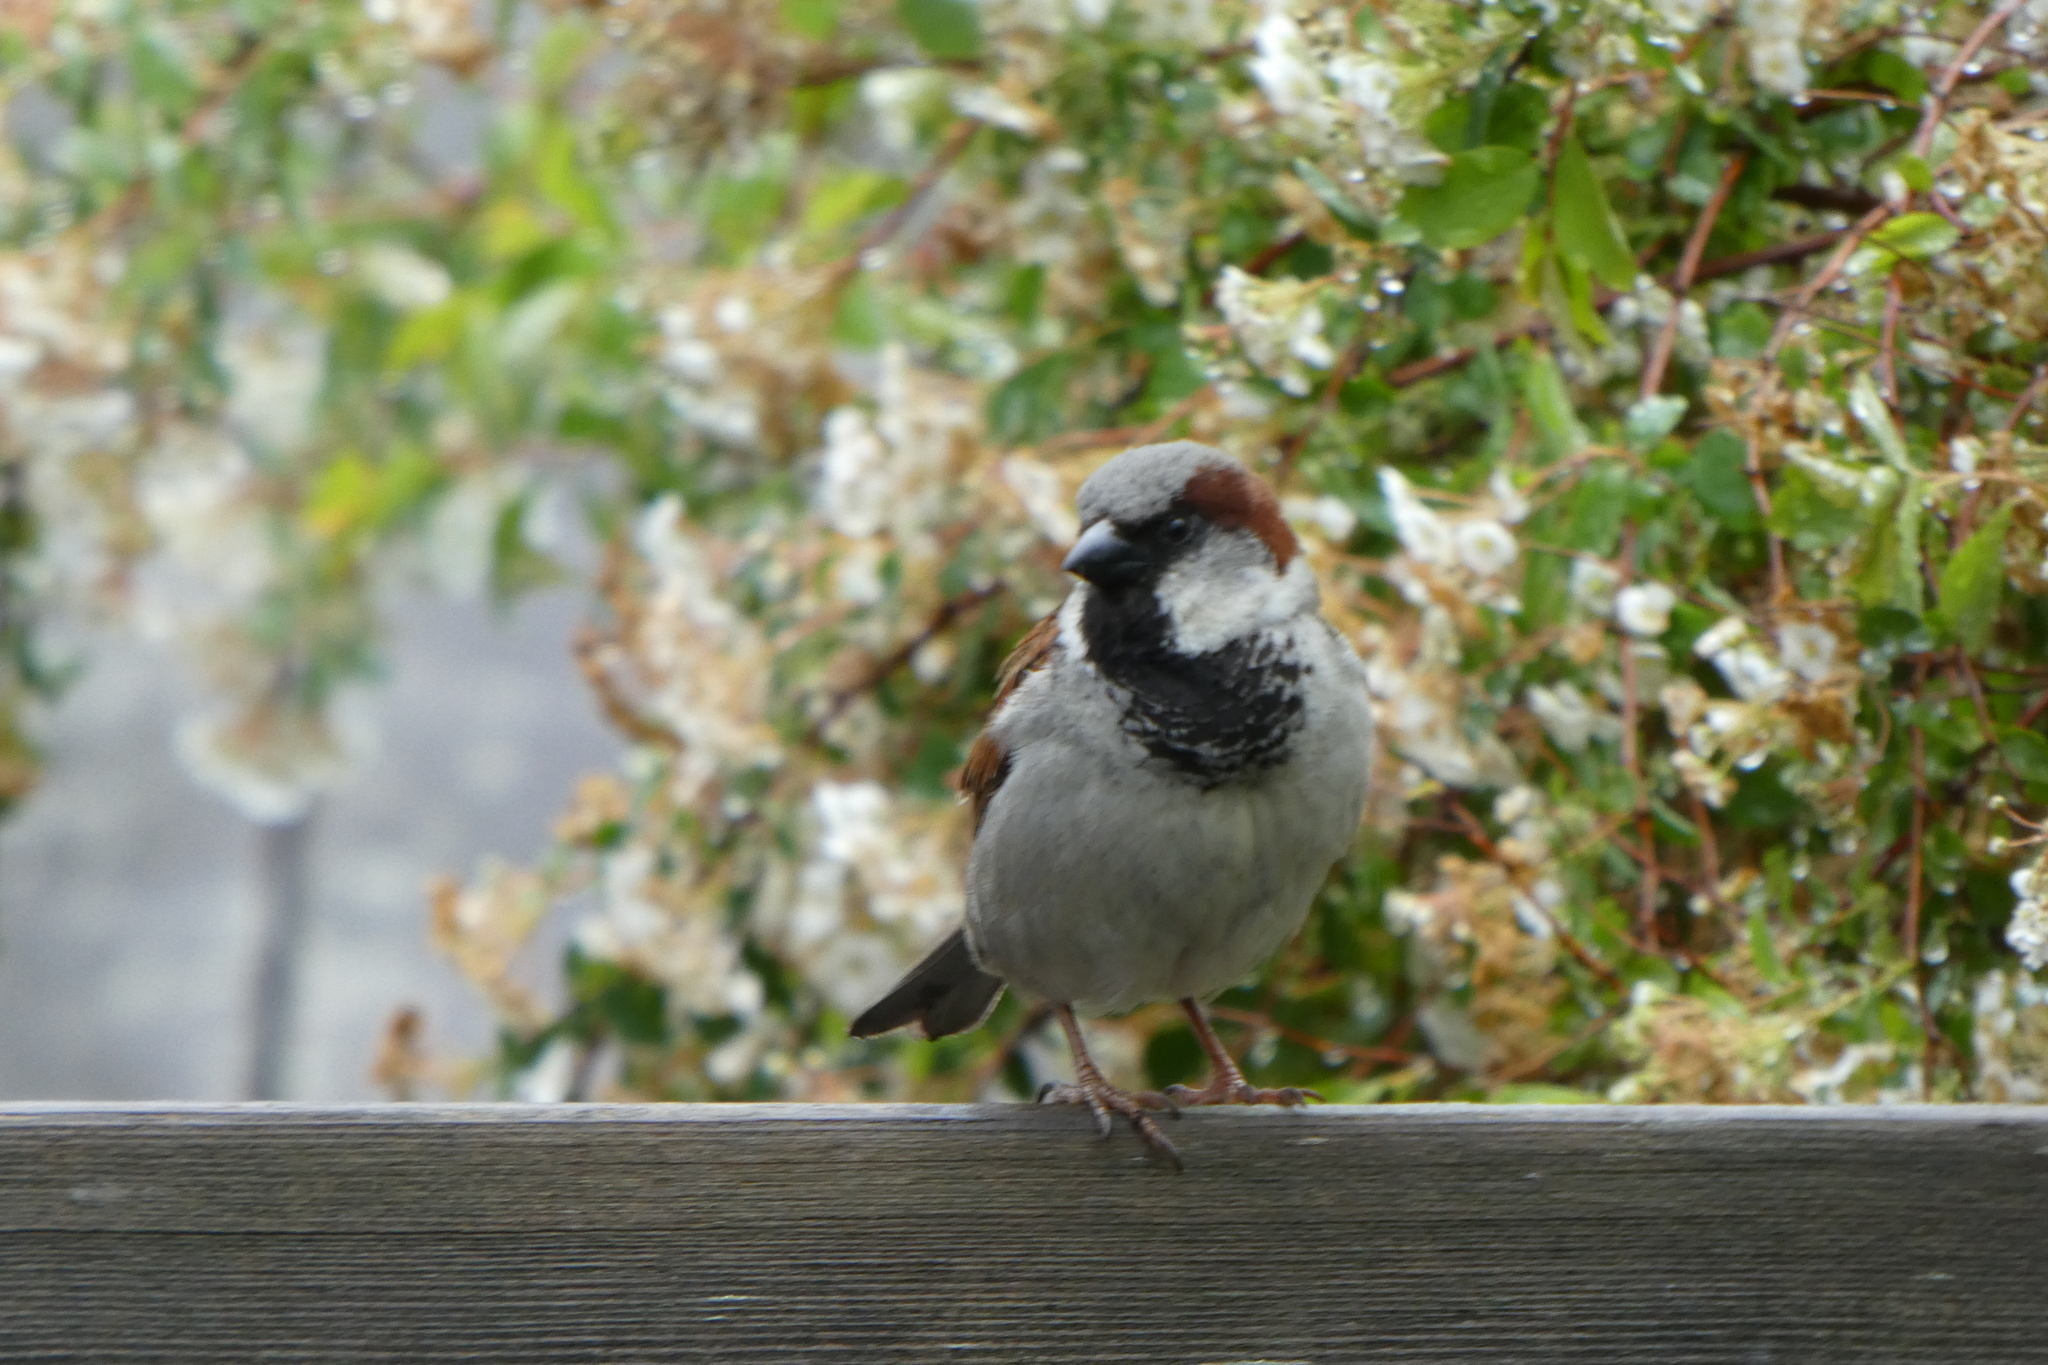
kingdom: Animalia
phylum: Chordata
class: Aves
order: Passeriformes
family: Passeridae
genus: Passer
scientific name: Passer domesticus
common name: House sparrow
